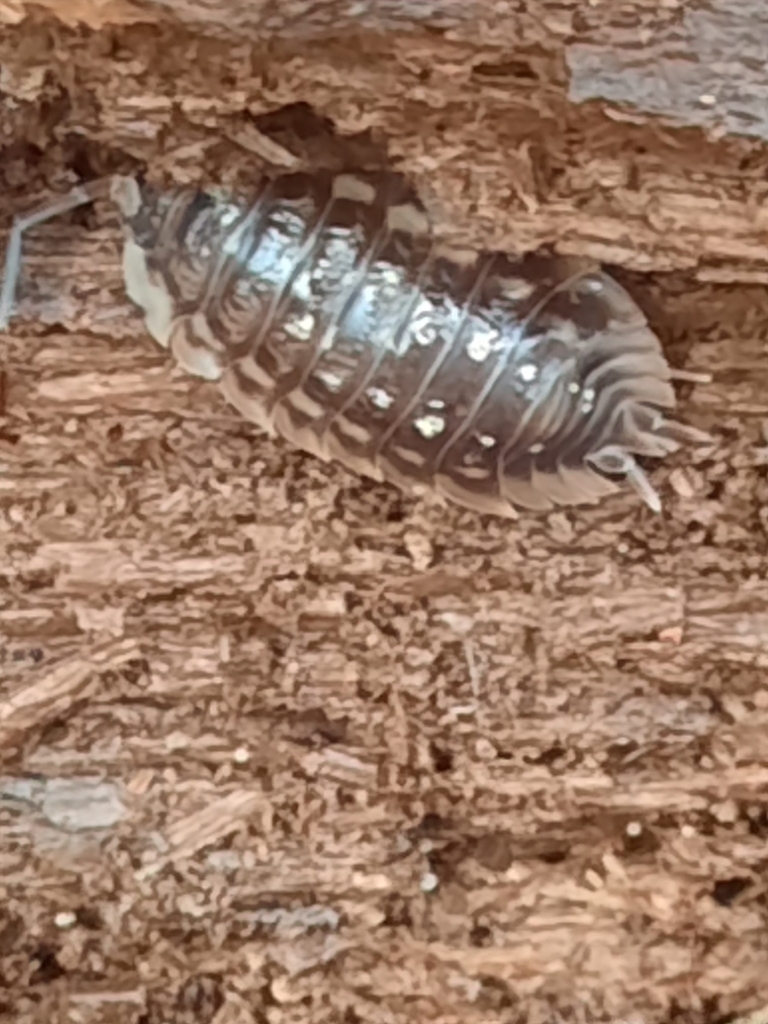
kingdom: Animalia
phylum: Arthropoda
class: Malacostraca
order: Isopoda
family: Oniscidae
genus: Oniscus
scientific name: Oniscus asellus
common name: Common shiny woodlouse
